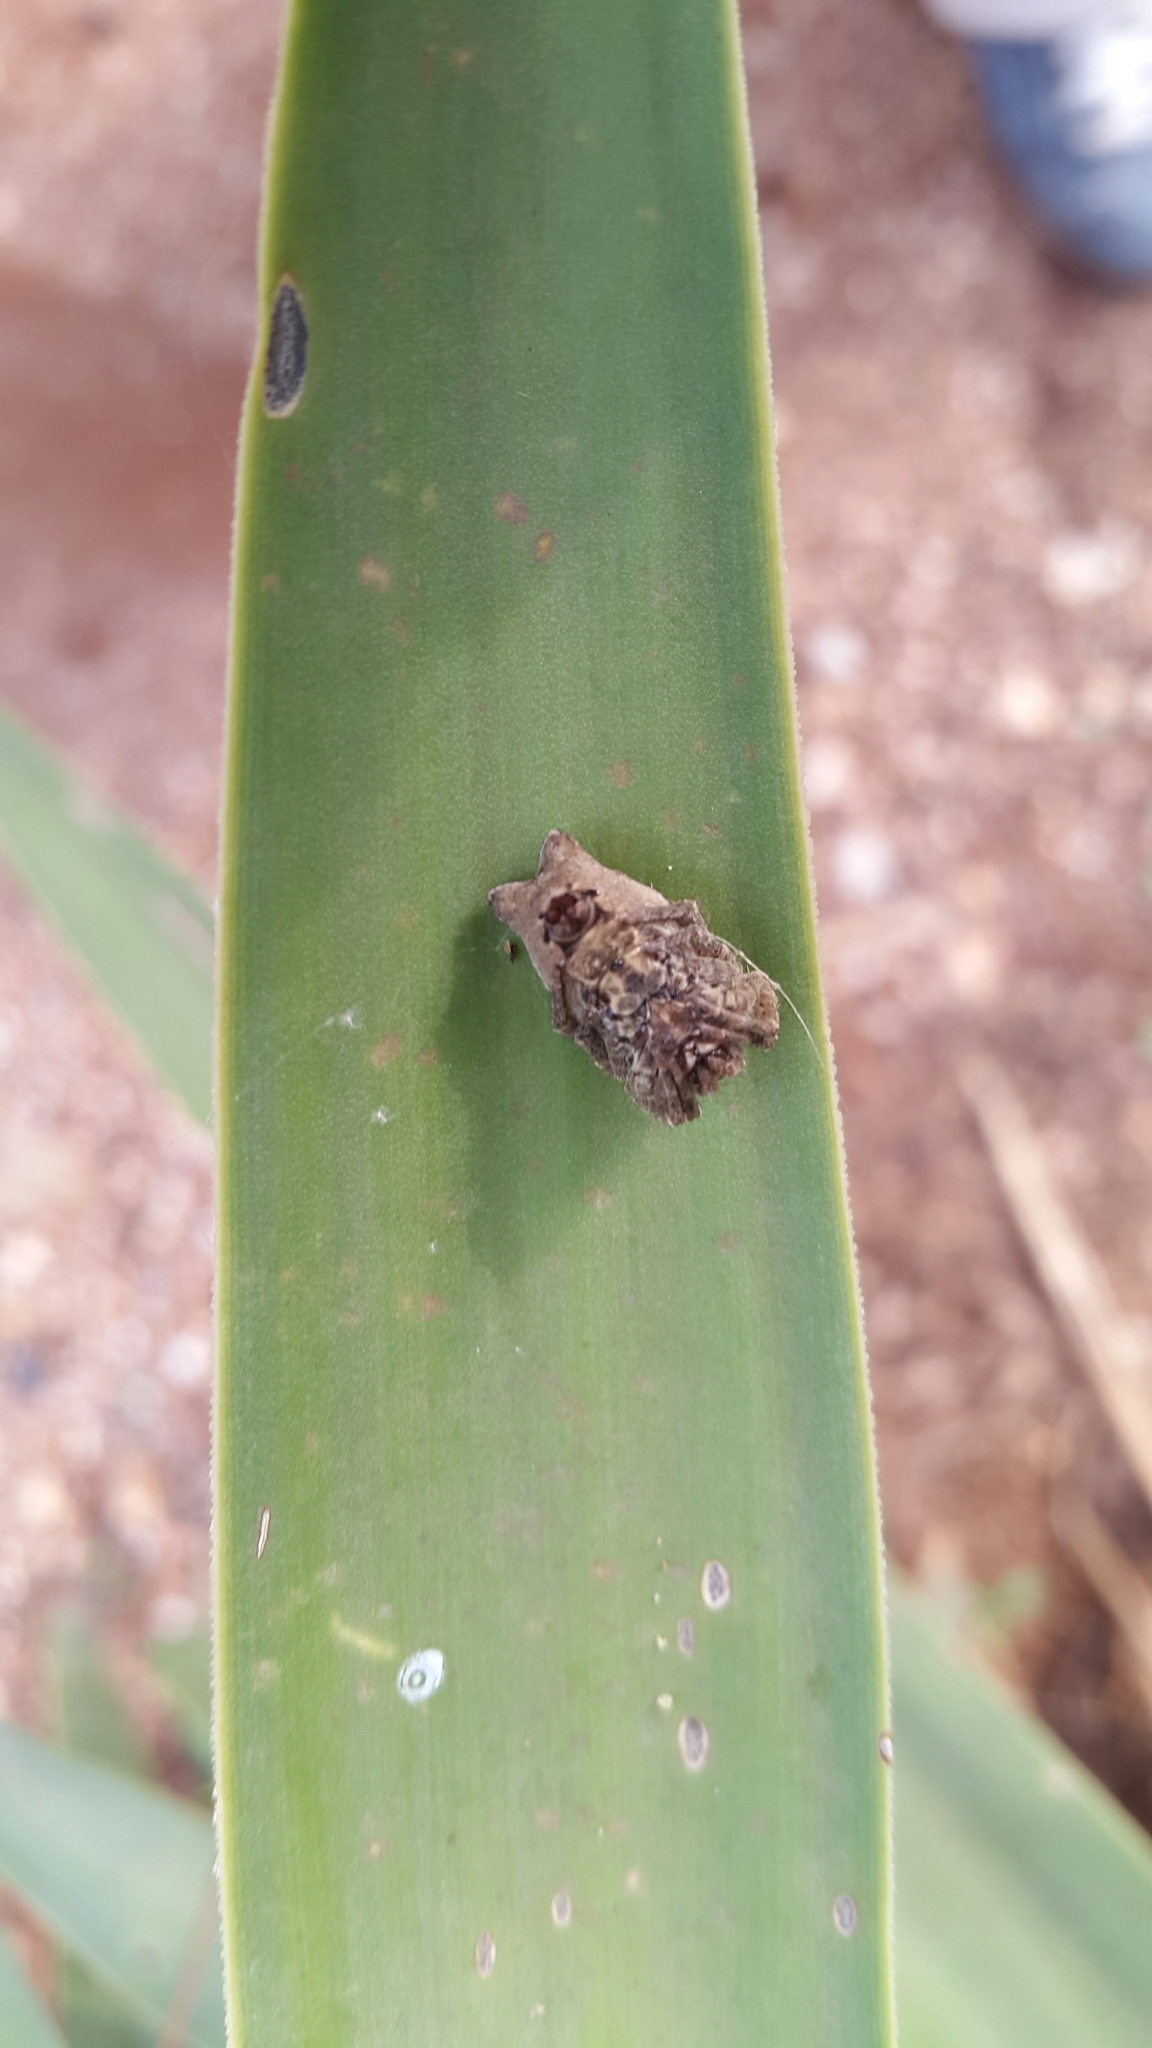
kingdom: Animalia
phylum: Arthropoda
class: Arachnida
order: Araneae
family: Araneidae
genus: Cyrtophora
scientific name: Cyrtophora citricola
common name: Orb weavers
